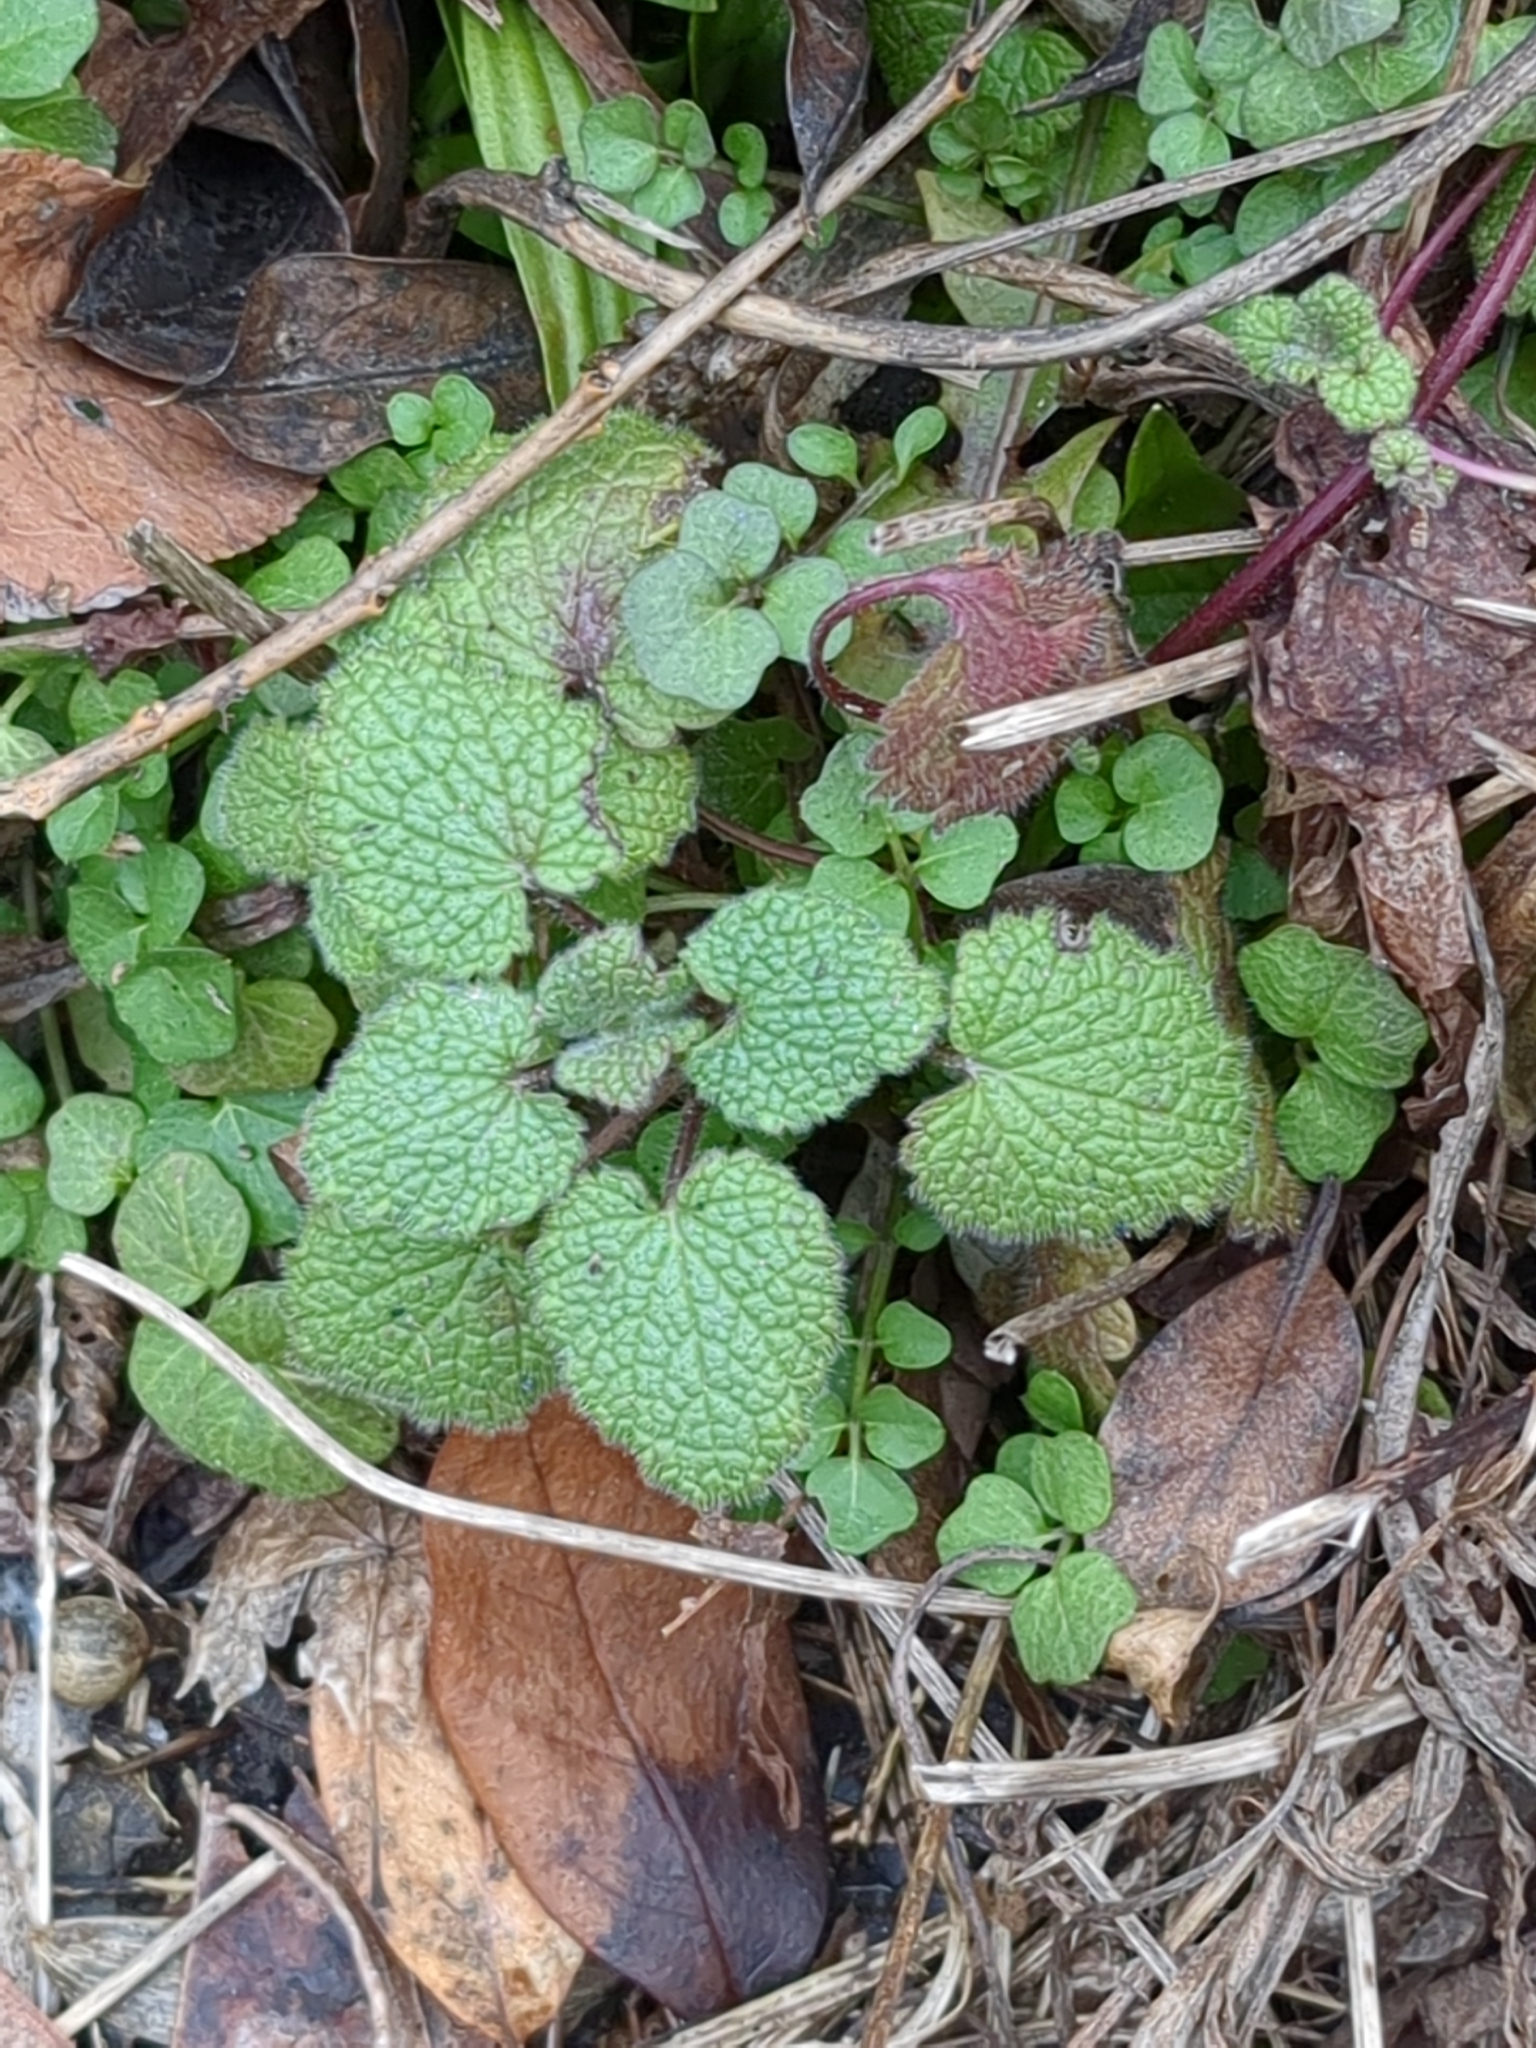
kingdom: Plantae
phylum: Tracheophyta
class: Magnoliopsida
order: Lamiales
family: Lamiaceae
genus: Lamium
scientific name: Lamium purpureum
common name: Red dead-nettle
